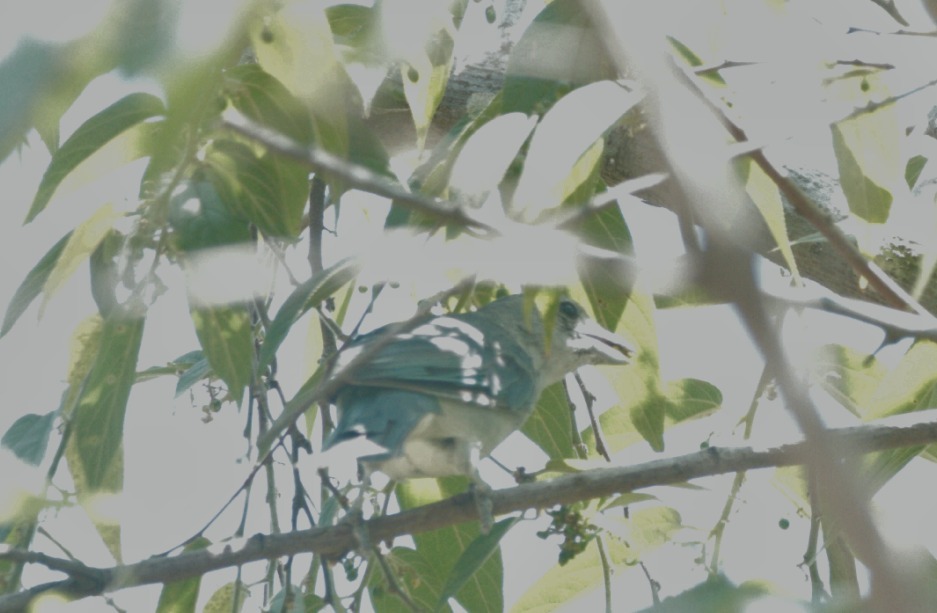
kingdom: Animalia
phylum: Chordata
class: Aves
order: Passeriformes
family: Thraupidae
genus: Thraupis
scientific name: Thraupis sayaca
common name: Sayaca tanager
